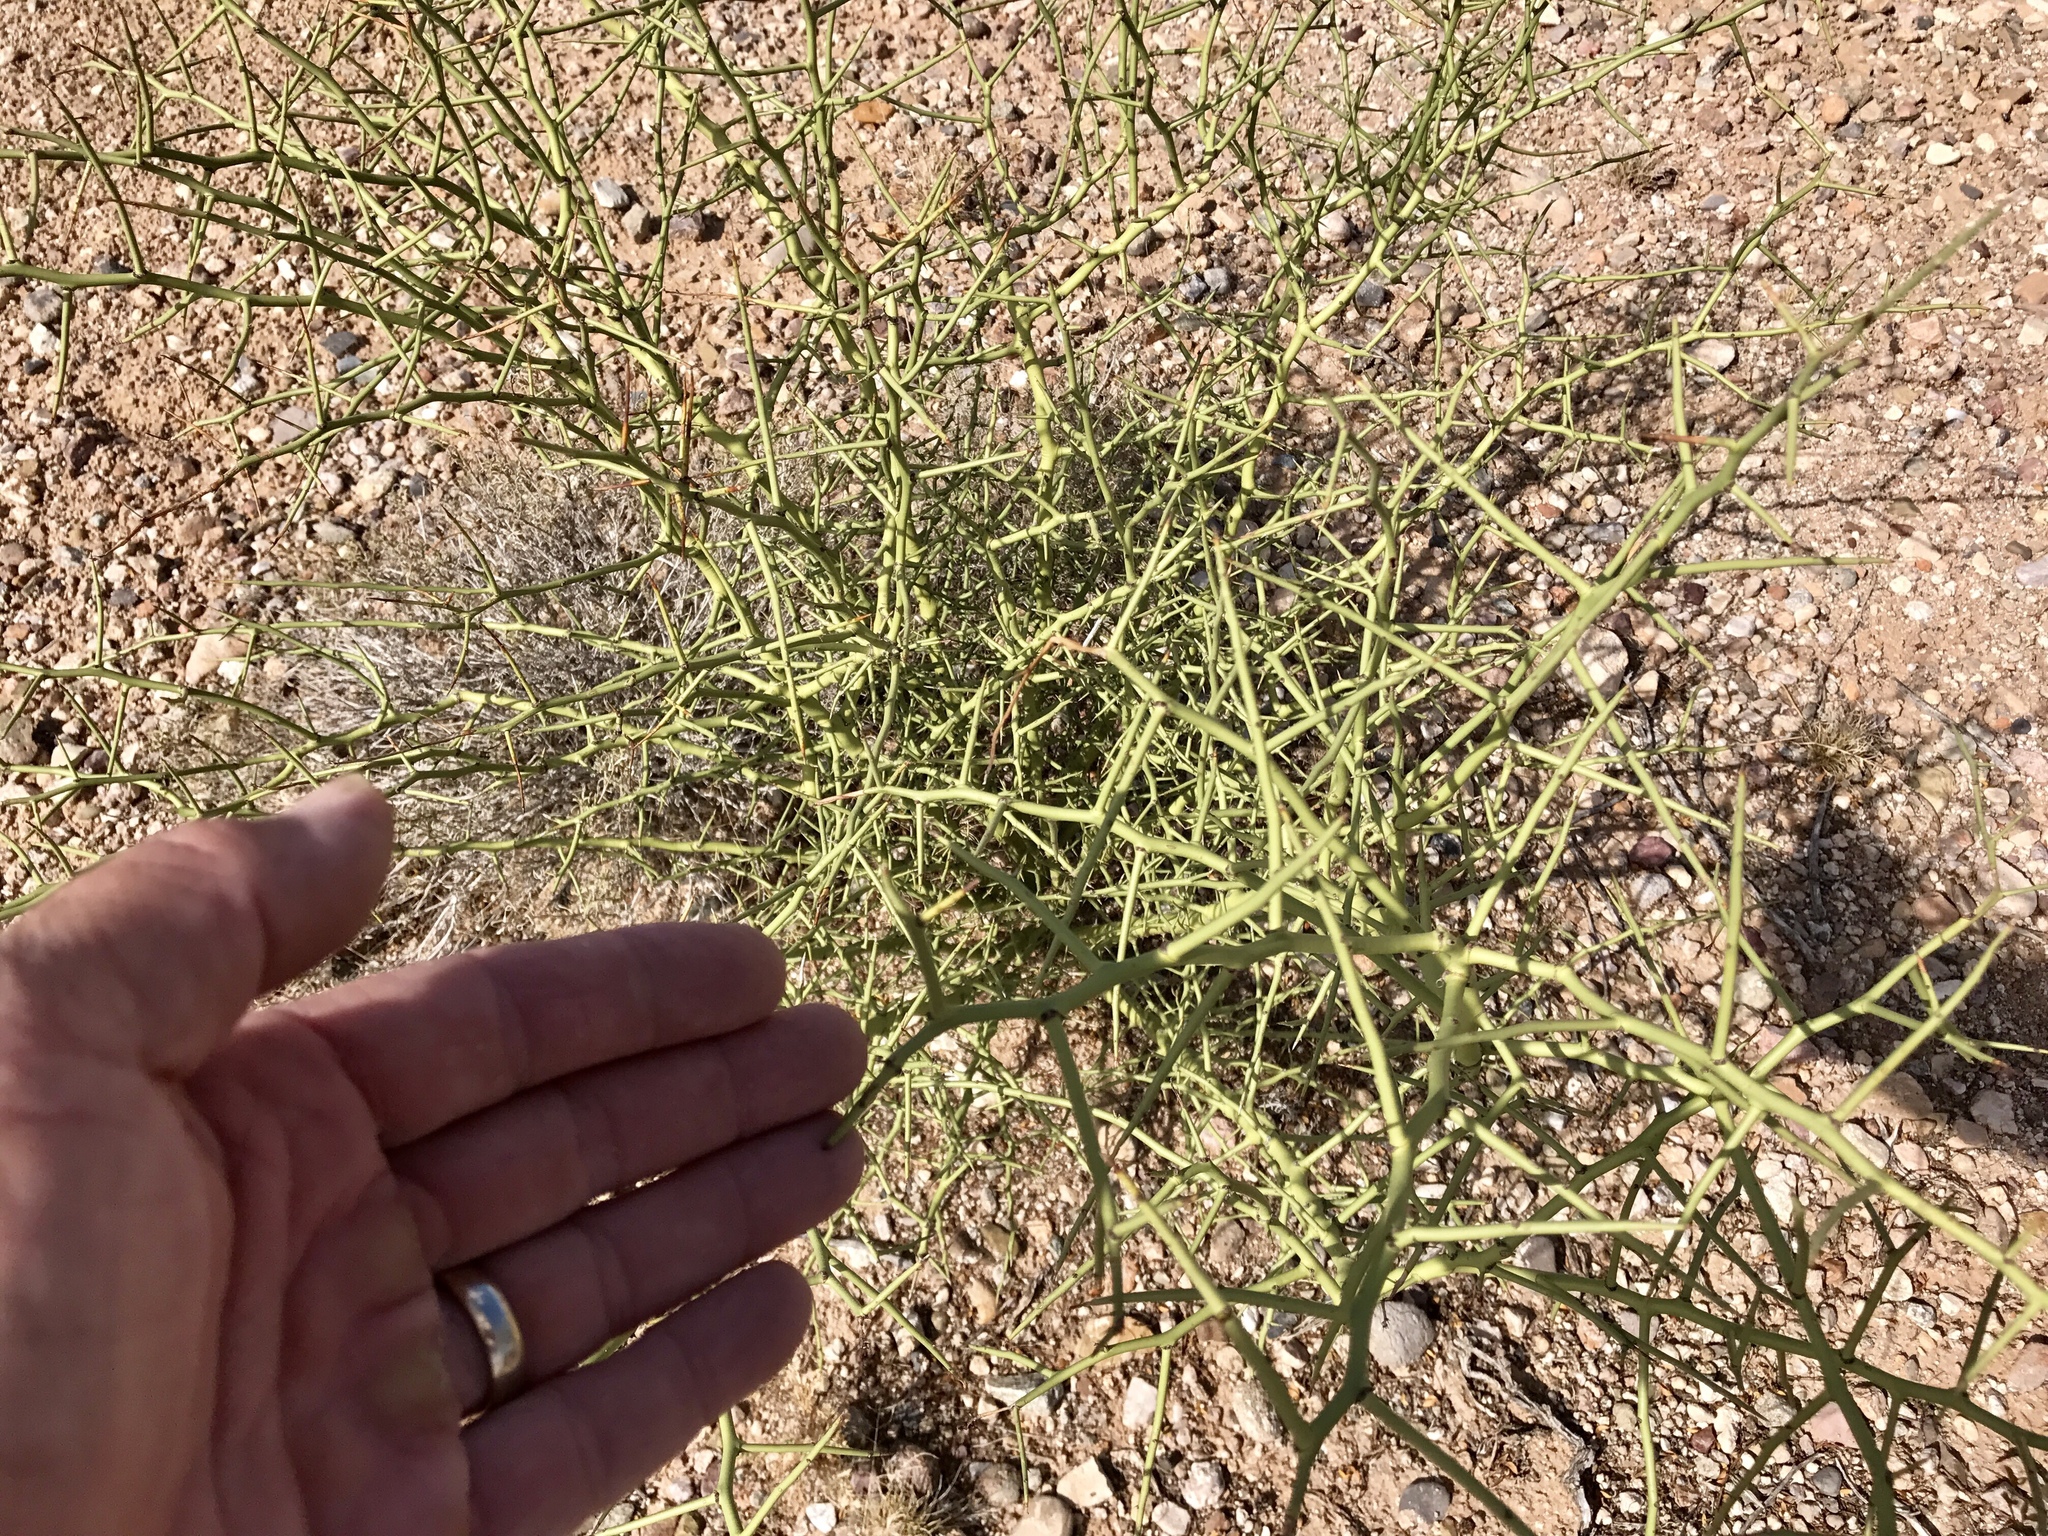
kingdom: Plantae
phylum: Tracheophyta
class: Magnoliopsida
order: Fabales
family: Fabaceae
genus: Parkinsonia
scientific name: Parkinsonia microphylla
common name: Yellow paloverde
